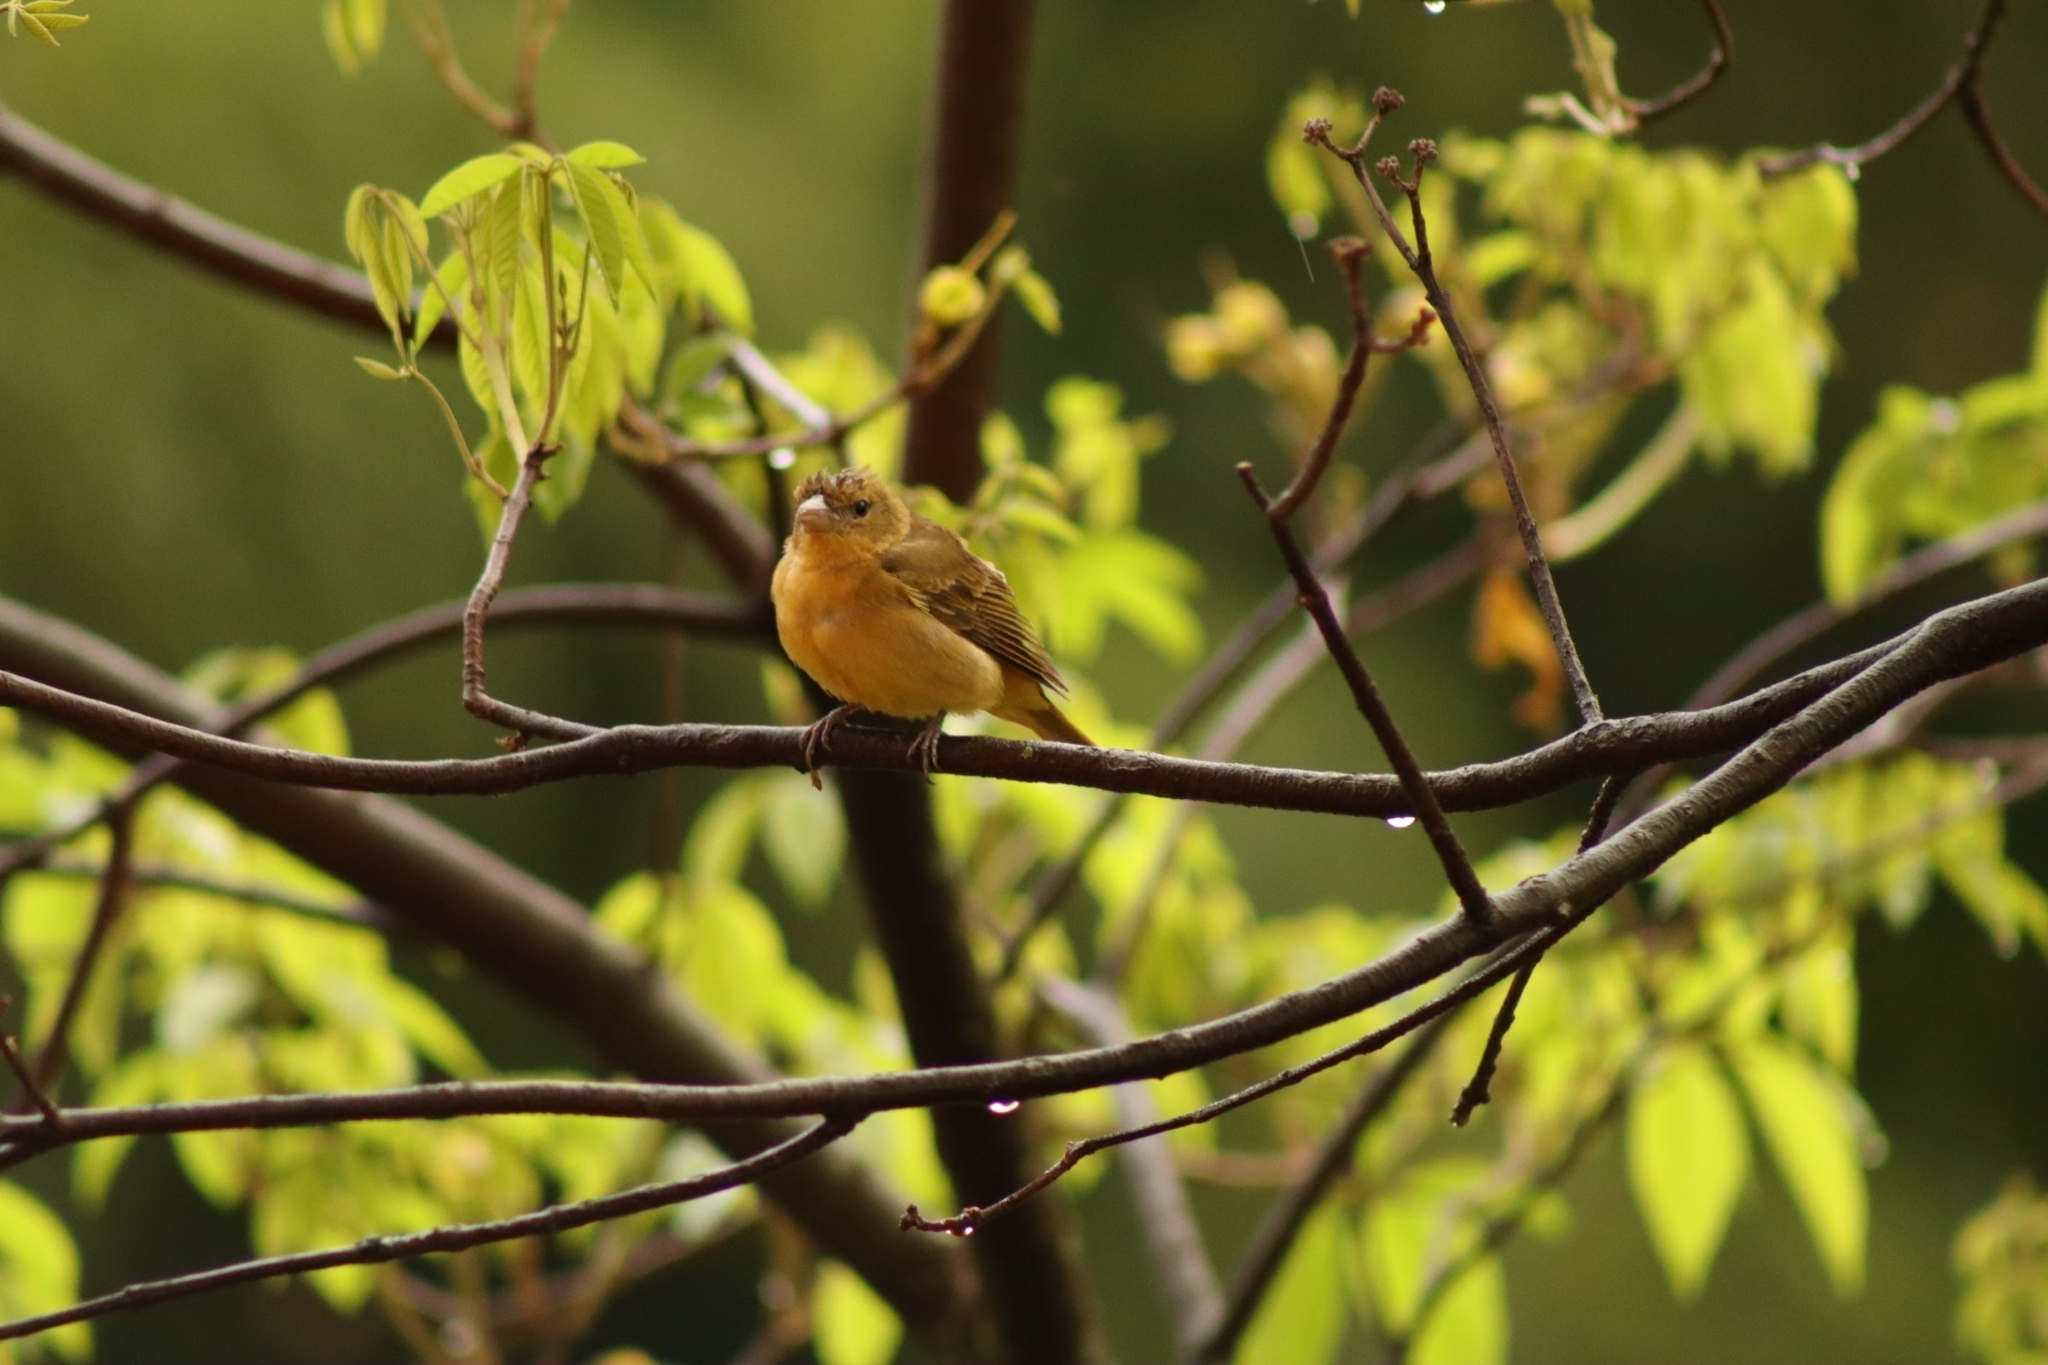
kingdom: Animalia
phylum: Chordata
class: Aves
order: Passeriformes
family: Cardinalidae
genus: Piranga
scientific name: Piranga rubra
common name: Summer tanager
